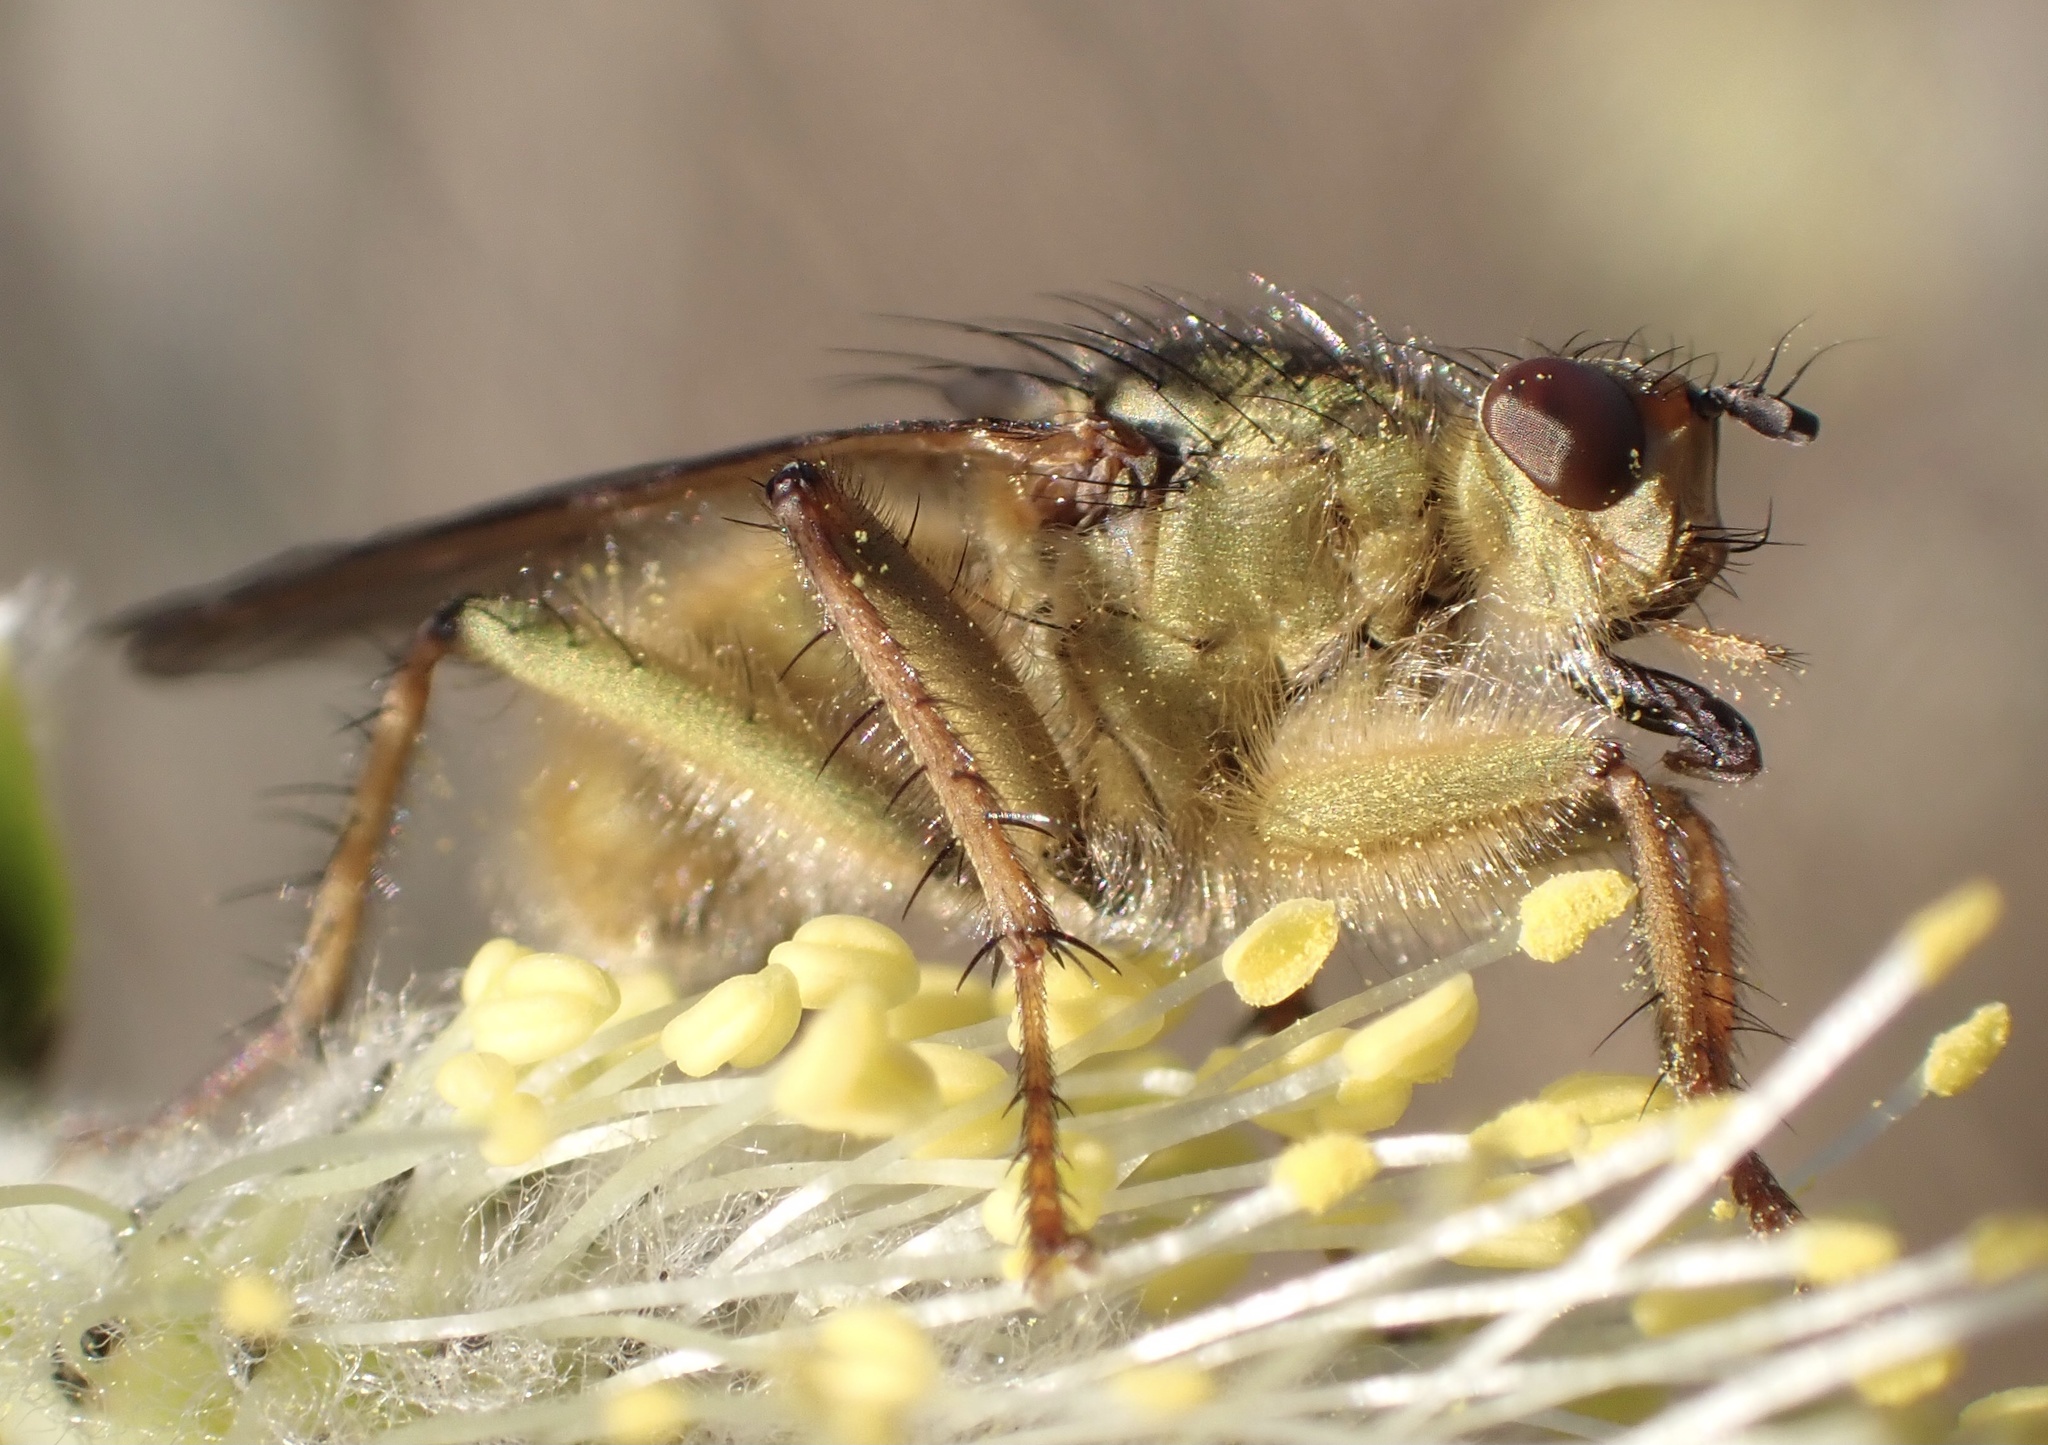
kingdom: Animalia
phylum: Arthropoda
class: Insecta
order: Diptera
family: Scathophagidae
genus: Scathophaga
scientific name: Scathophaga stercoraria
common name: Yellow dung fly
